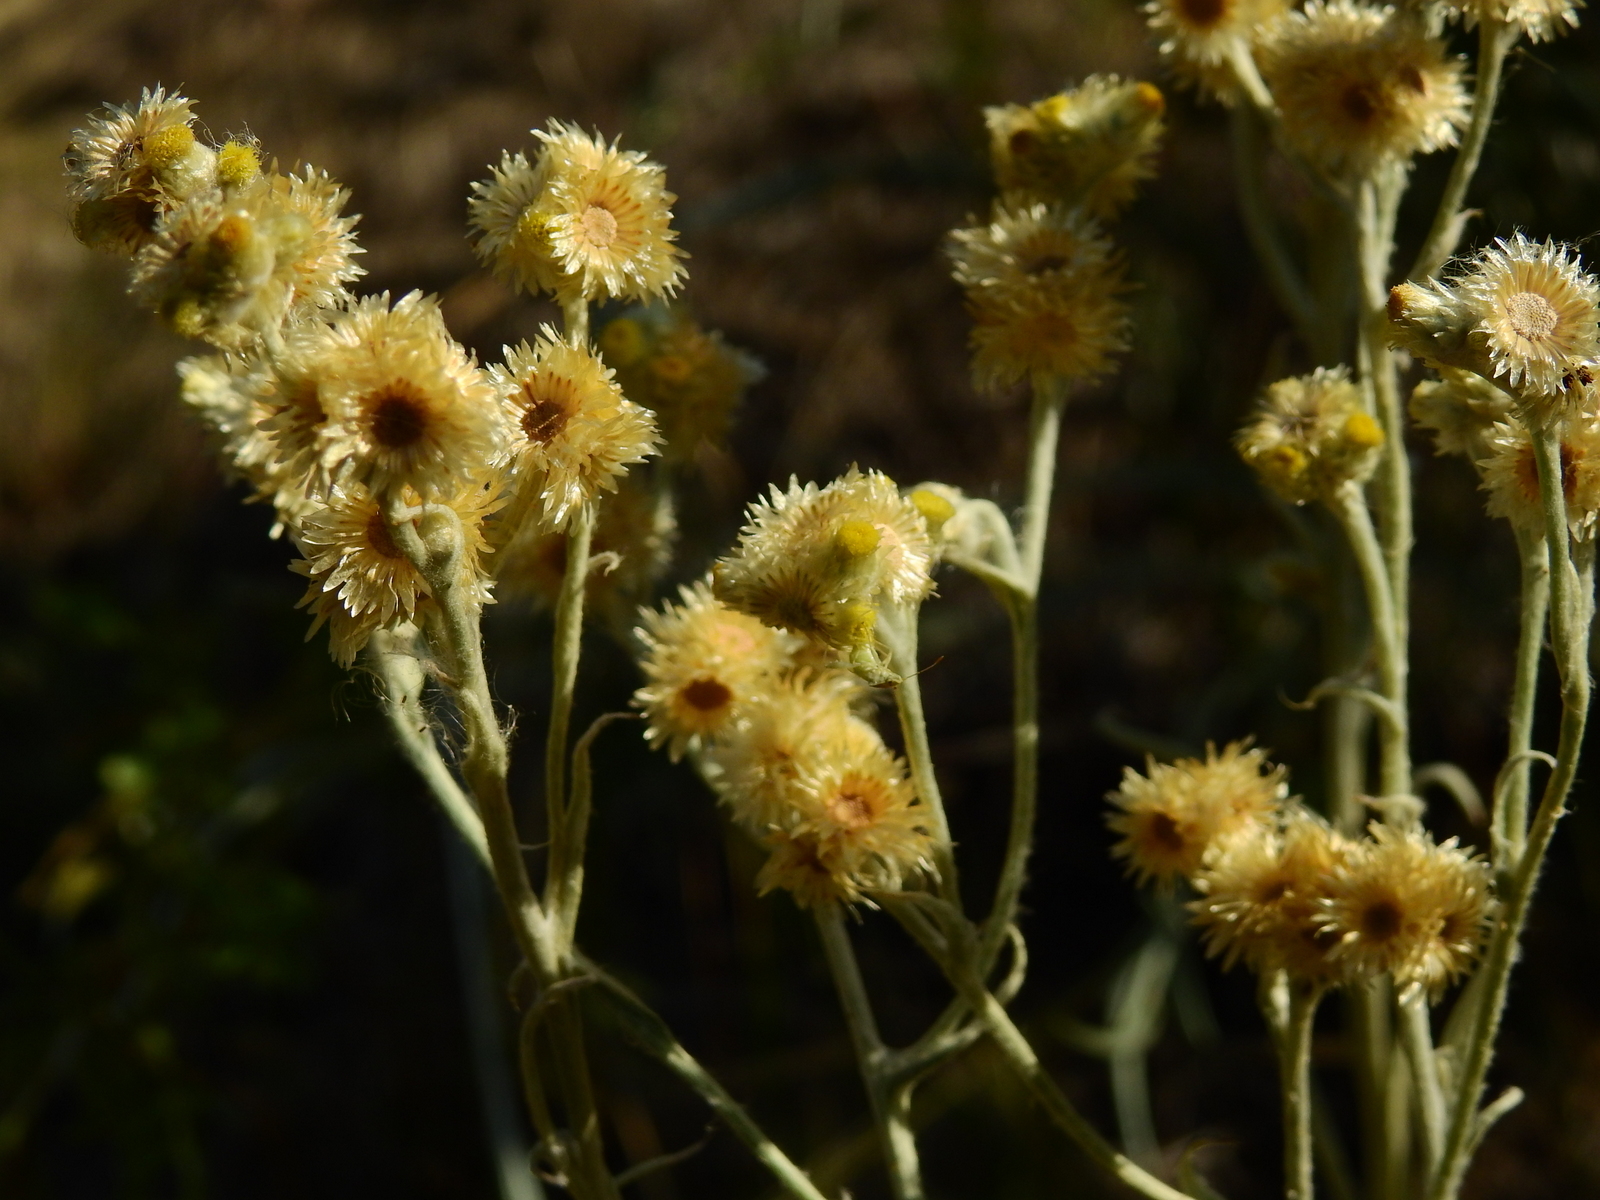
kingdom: Plantae
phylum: Tracheophyta
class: Magnoliopsida
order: Asterales
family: Asteraceae
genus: Pseudognaphalium
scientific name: Pseudognaphalium gaudichaudianum
